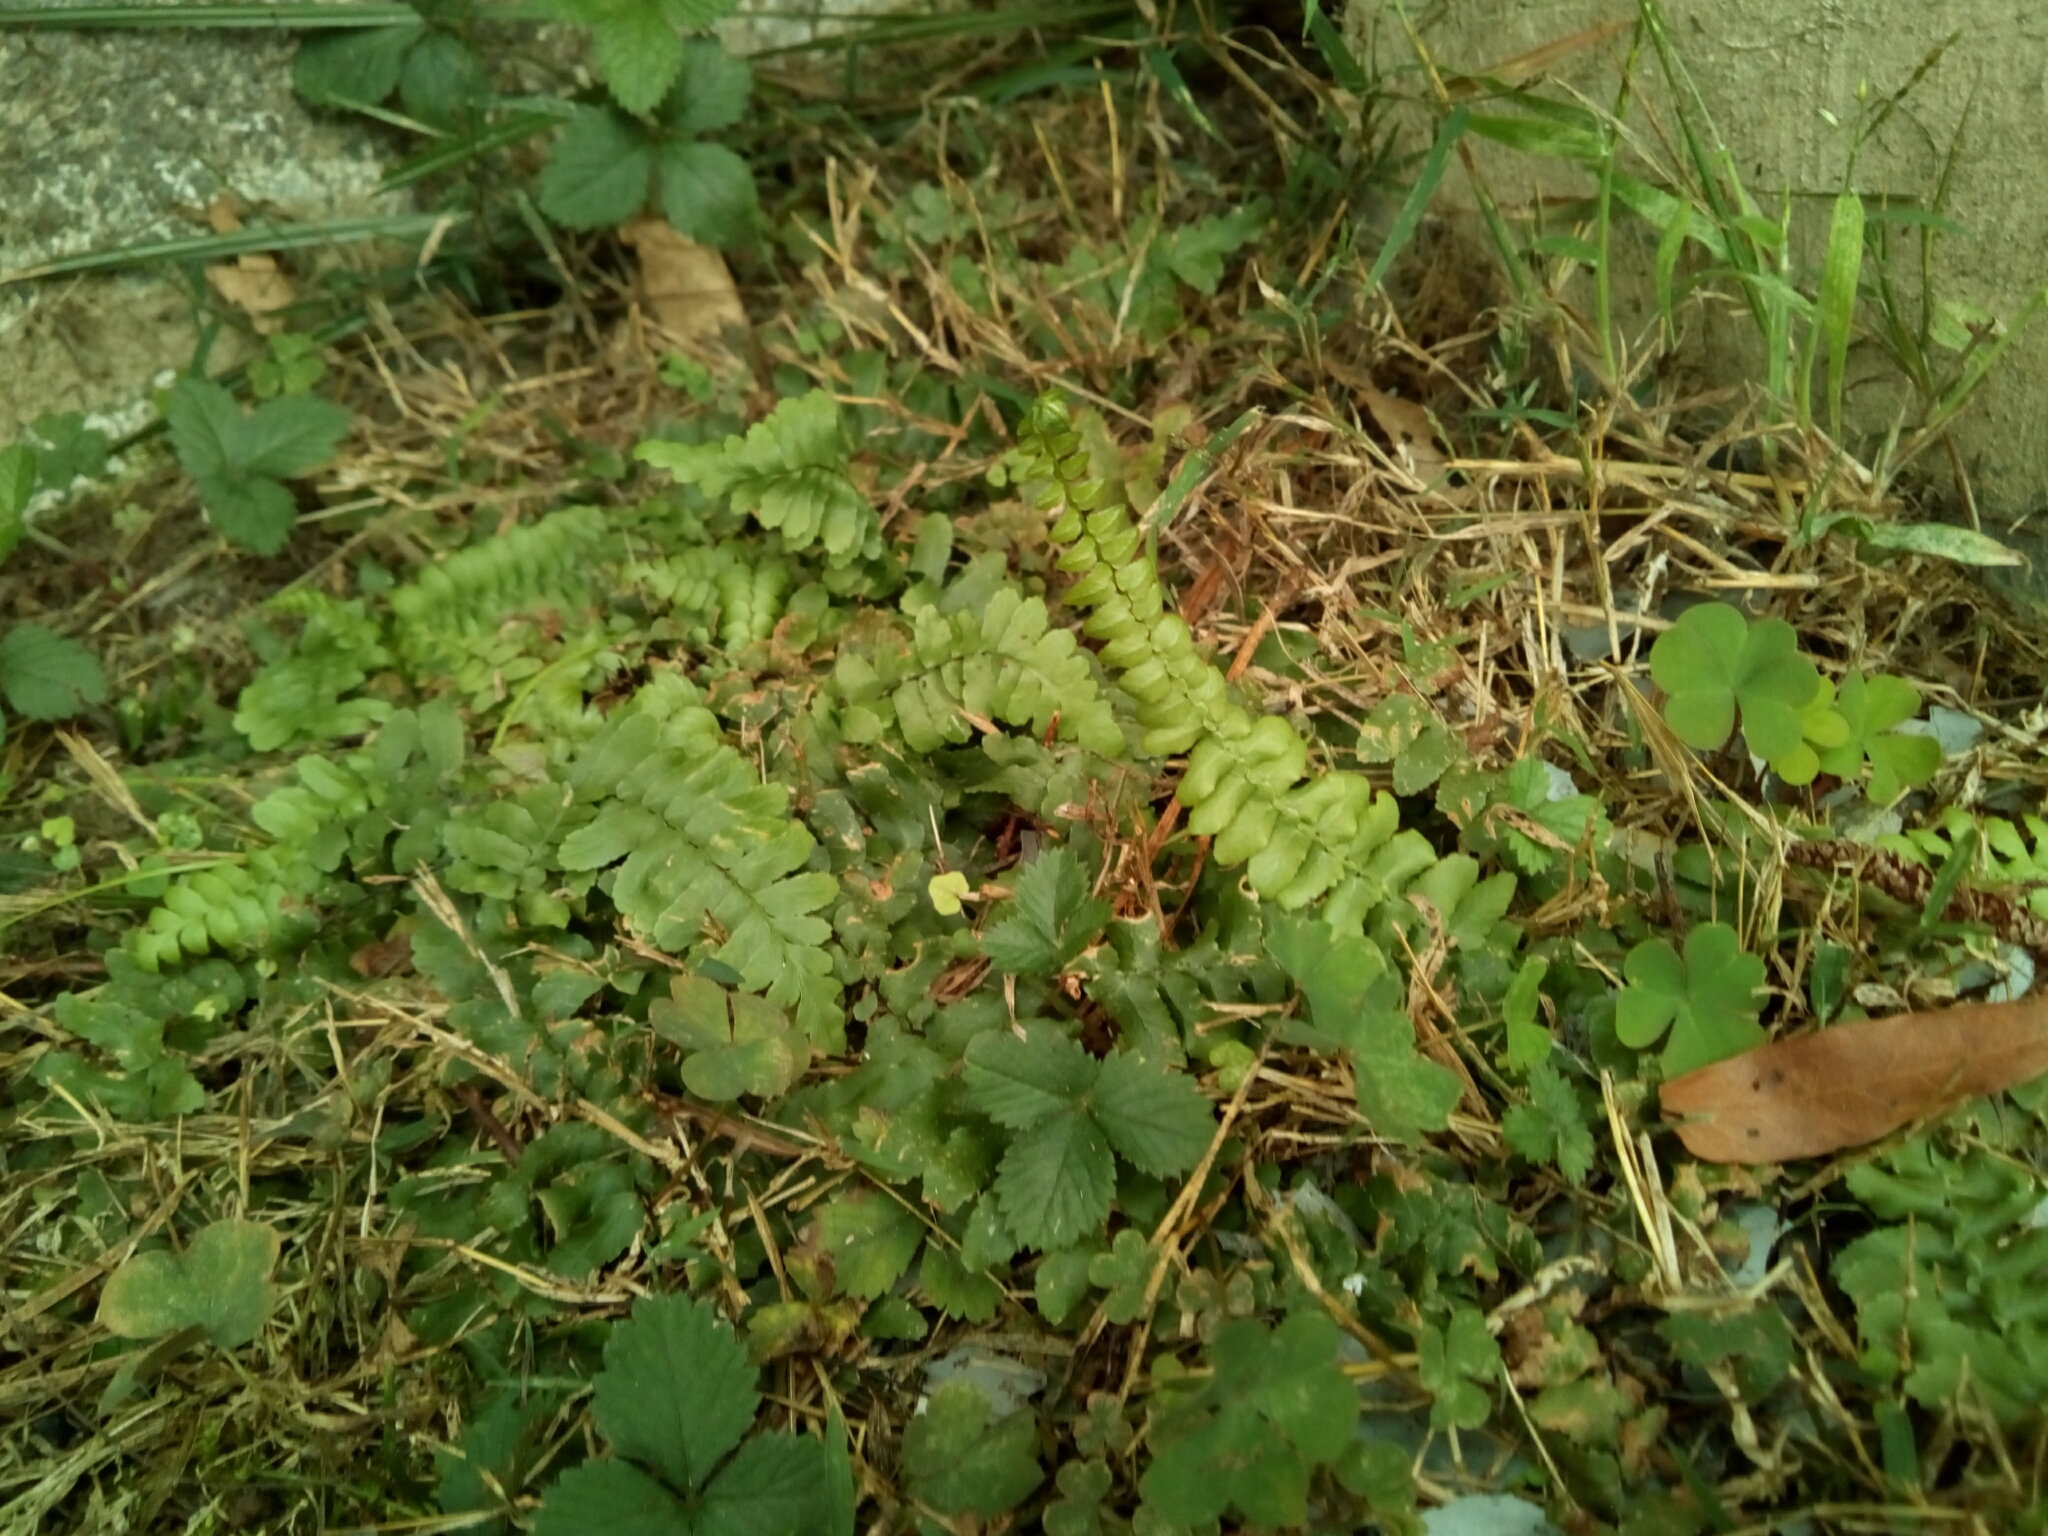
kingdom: Plantae
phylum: Tracheophyta
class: Polypodiopsida
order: Polypodiales
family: Aspleniaceae
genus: Asplenium
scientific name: Asplenium platyneuron
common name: Ebony spleenwort
